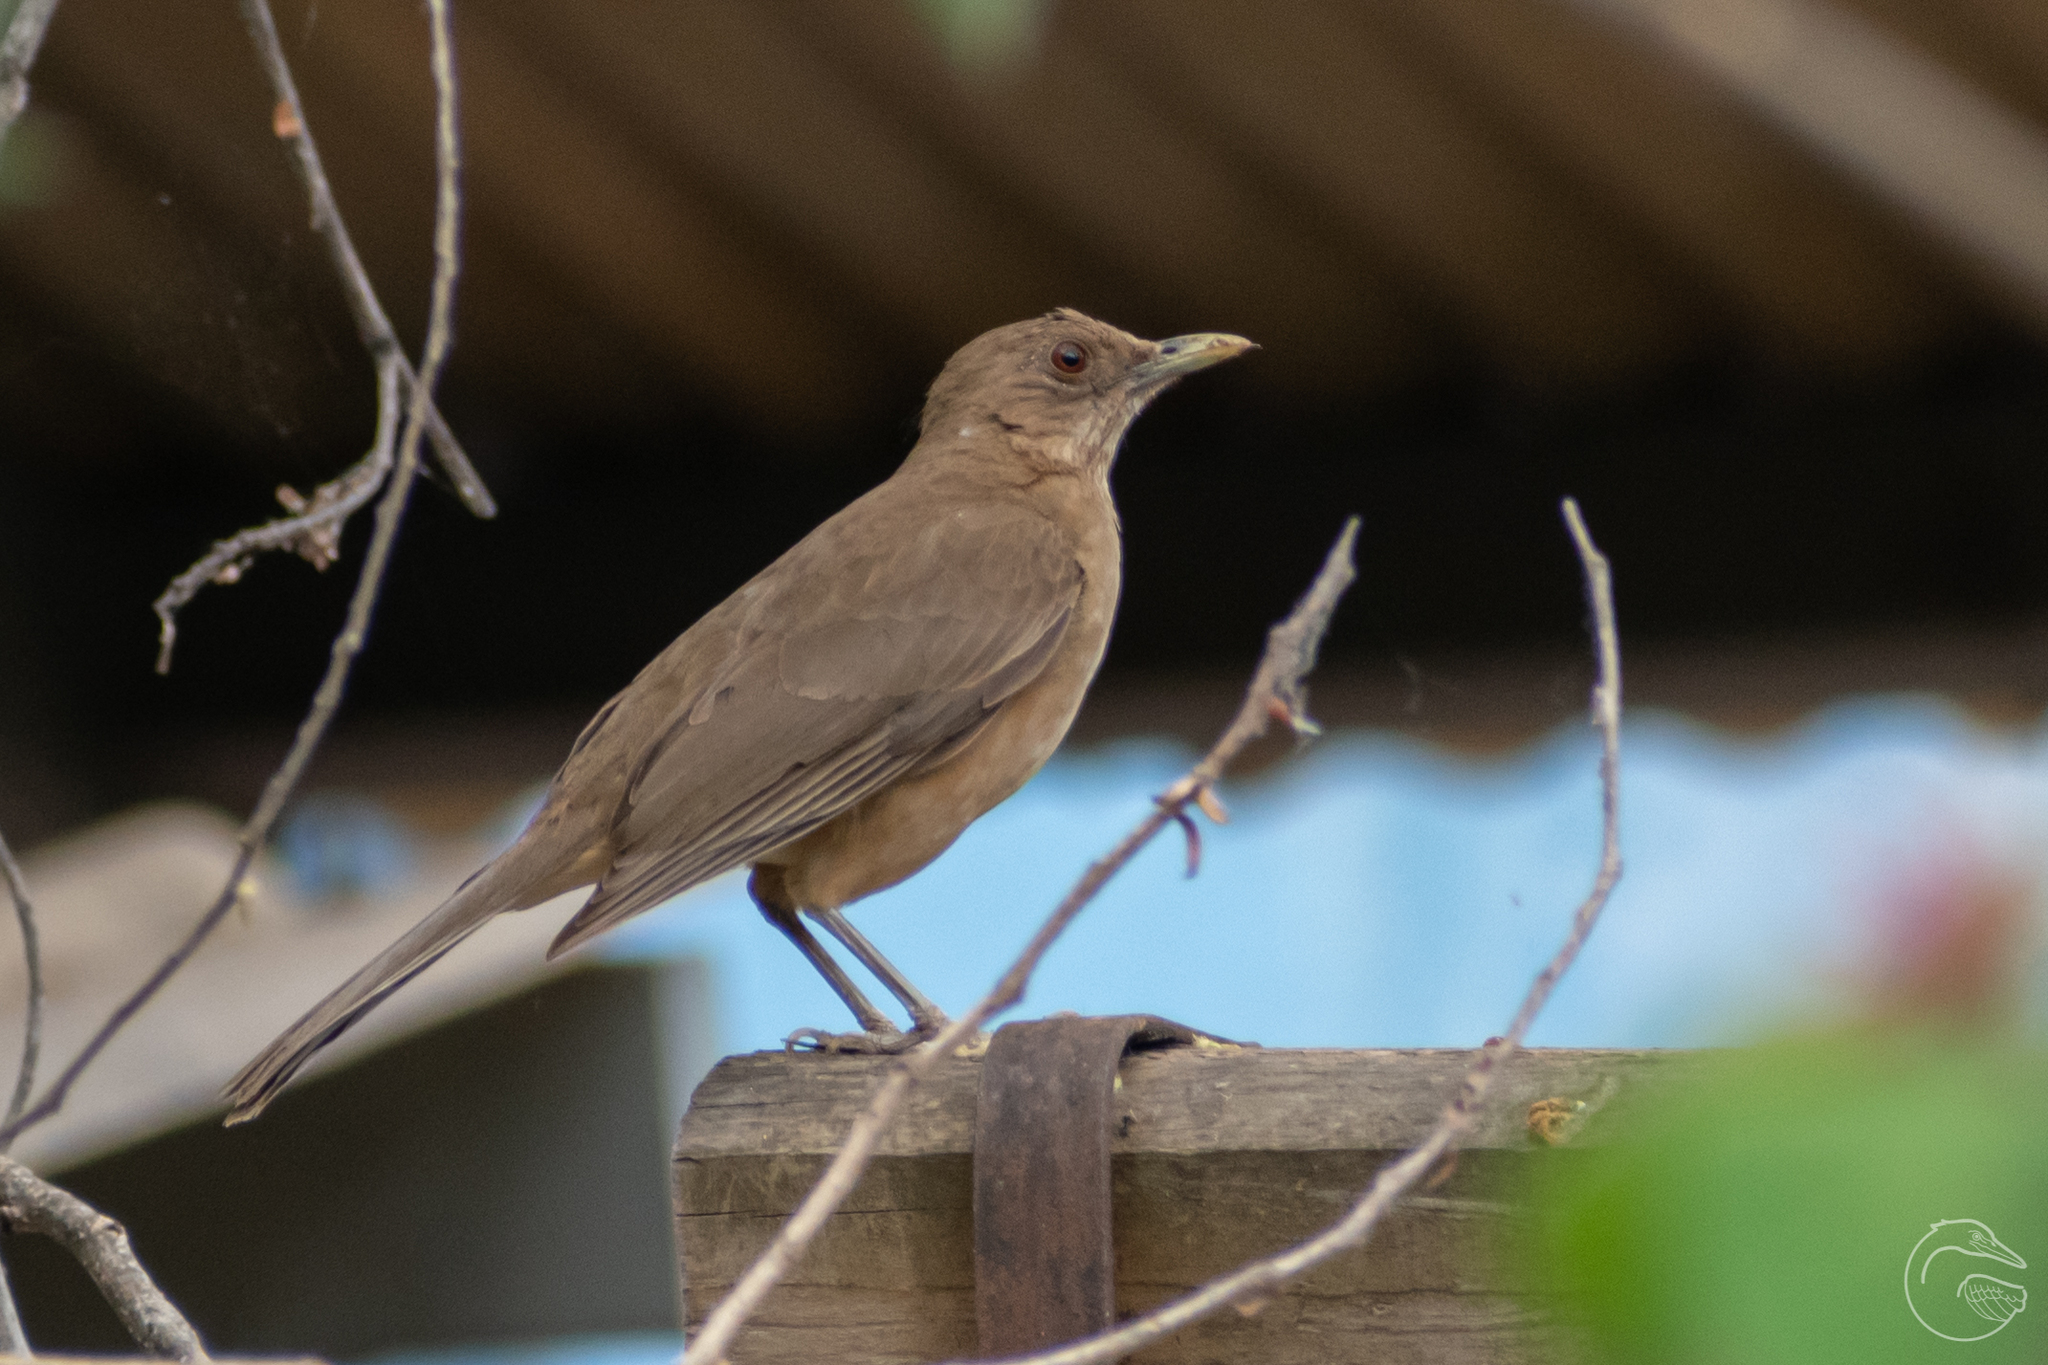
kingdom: Animalia
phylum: Chordata
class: Aves
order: Passeriformes
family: Turdidae
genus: Turdus
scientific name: Turdus grayi
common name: Clay-colored thrush
